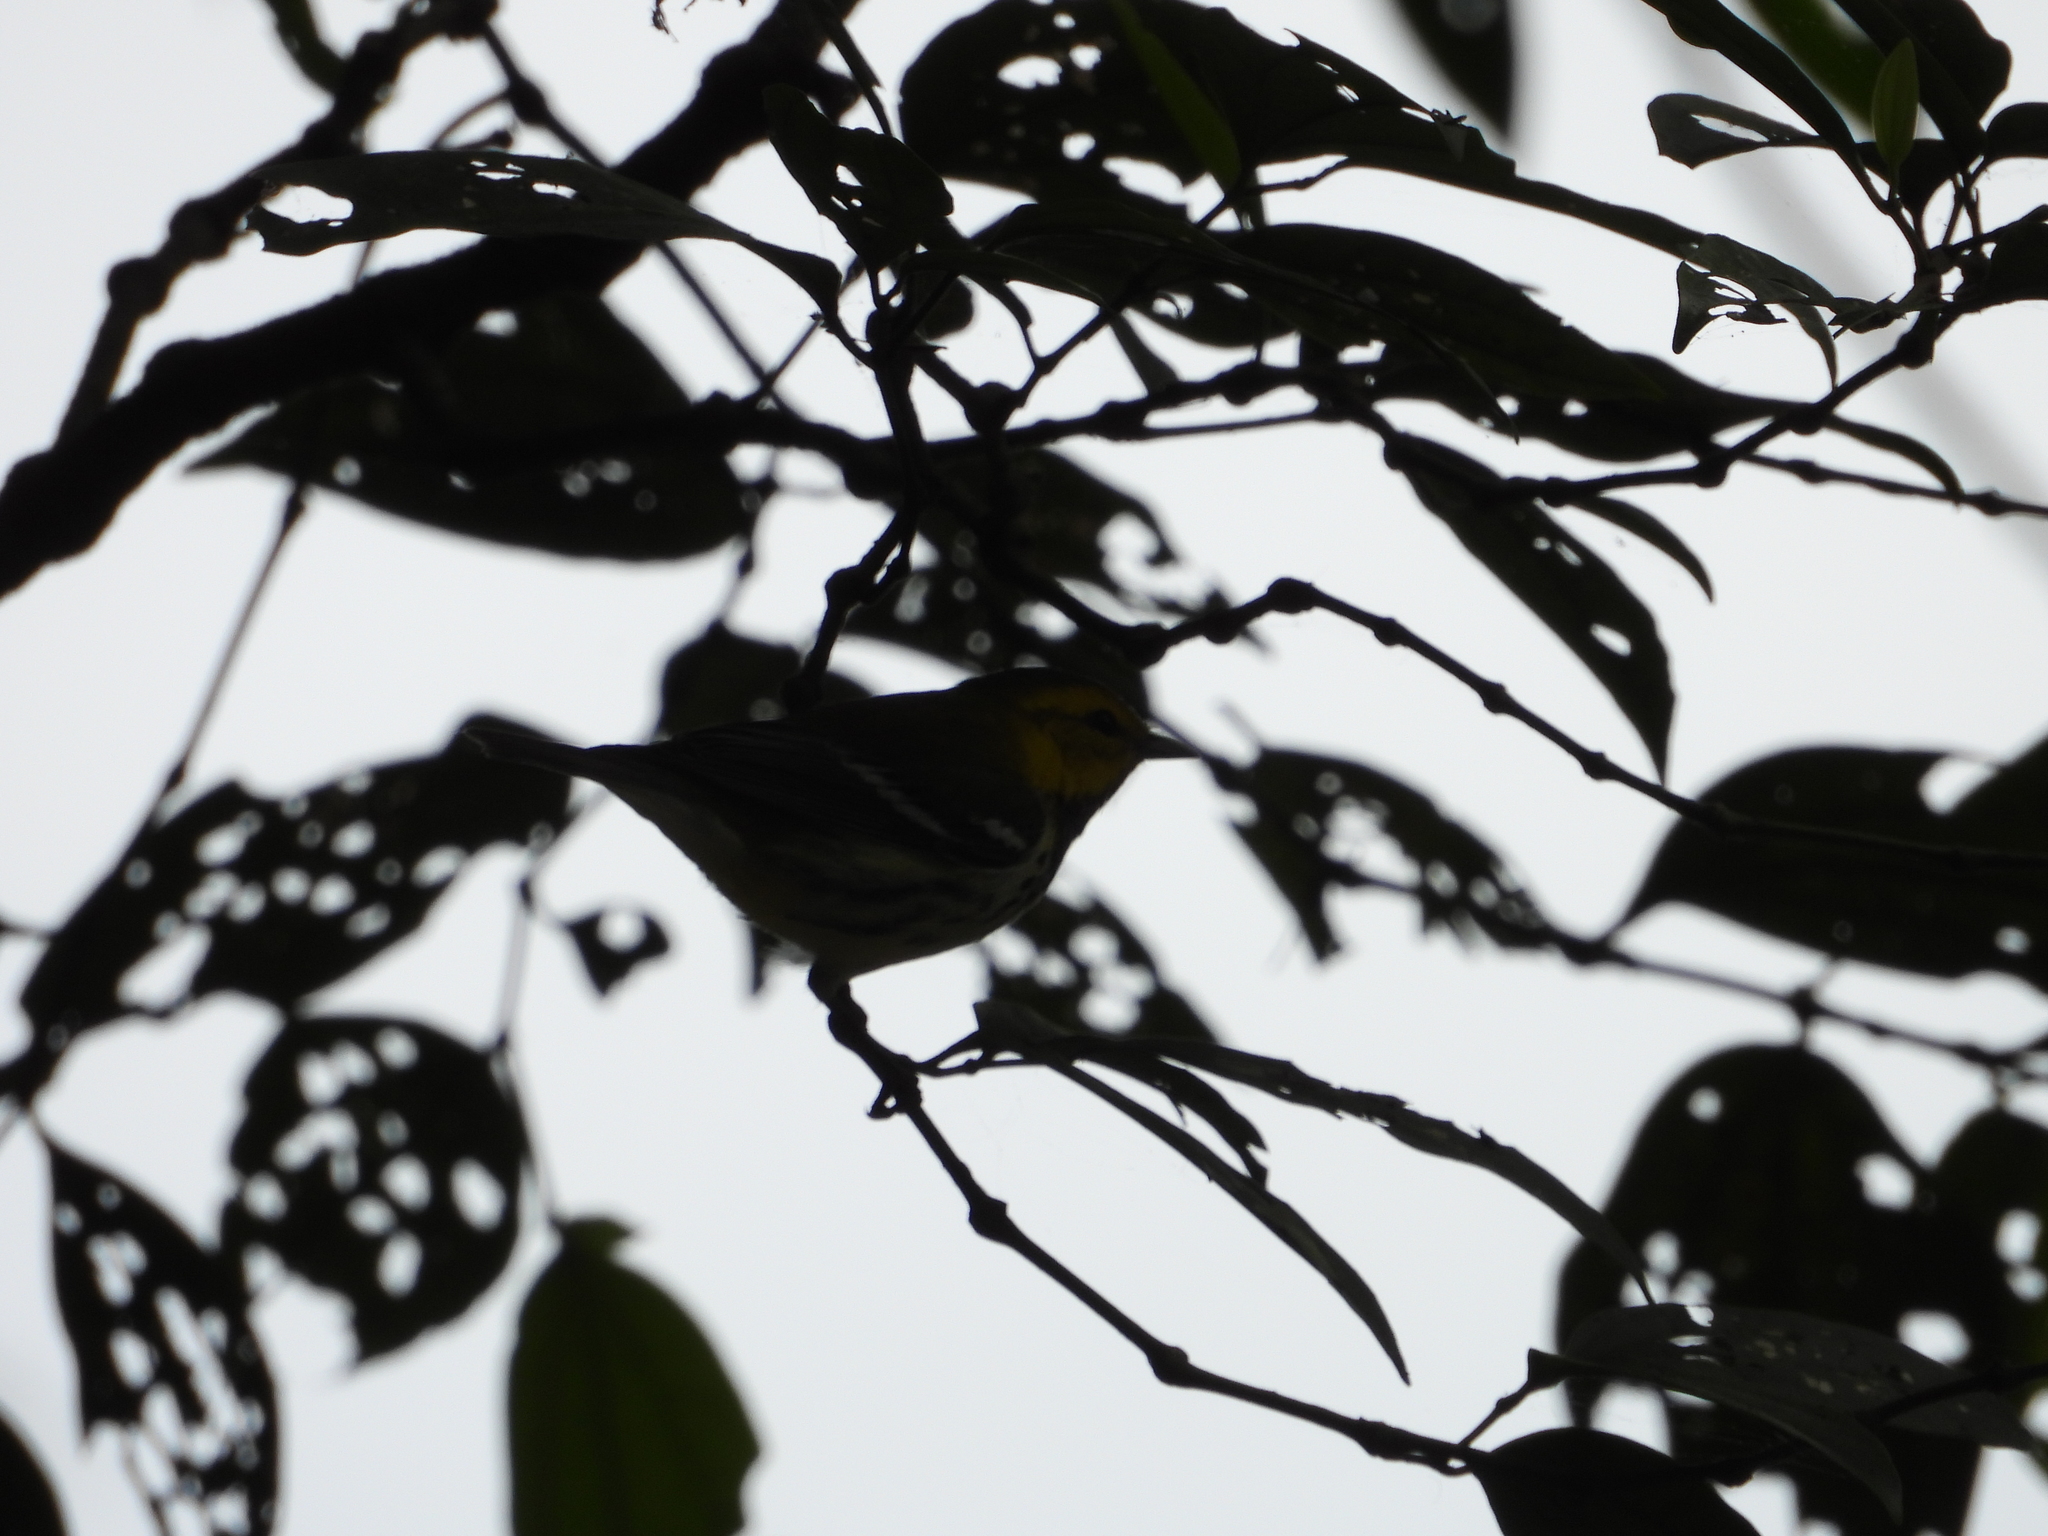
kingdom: Animalia
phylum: Chordata
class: Aves
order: Passeriformes
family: Parulidae
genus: Setophaga
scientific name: Setophaga virens
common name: Black-throated green warbler
